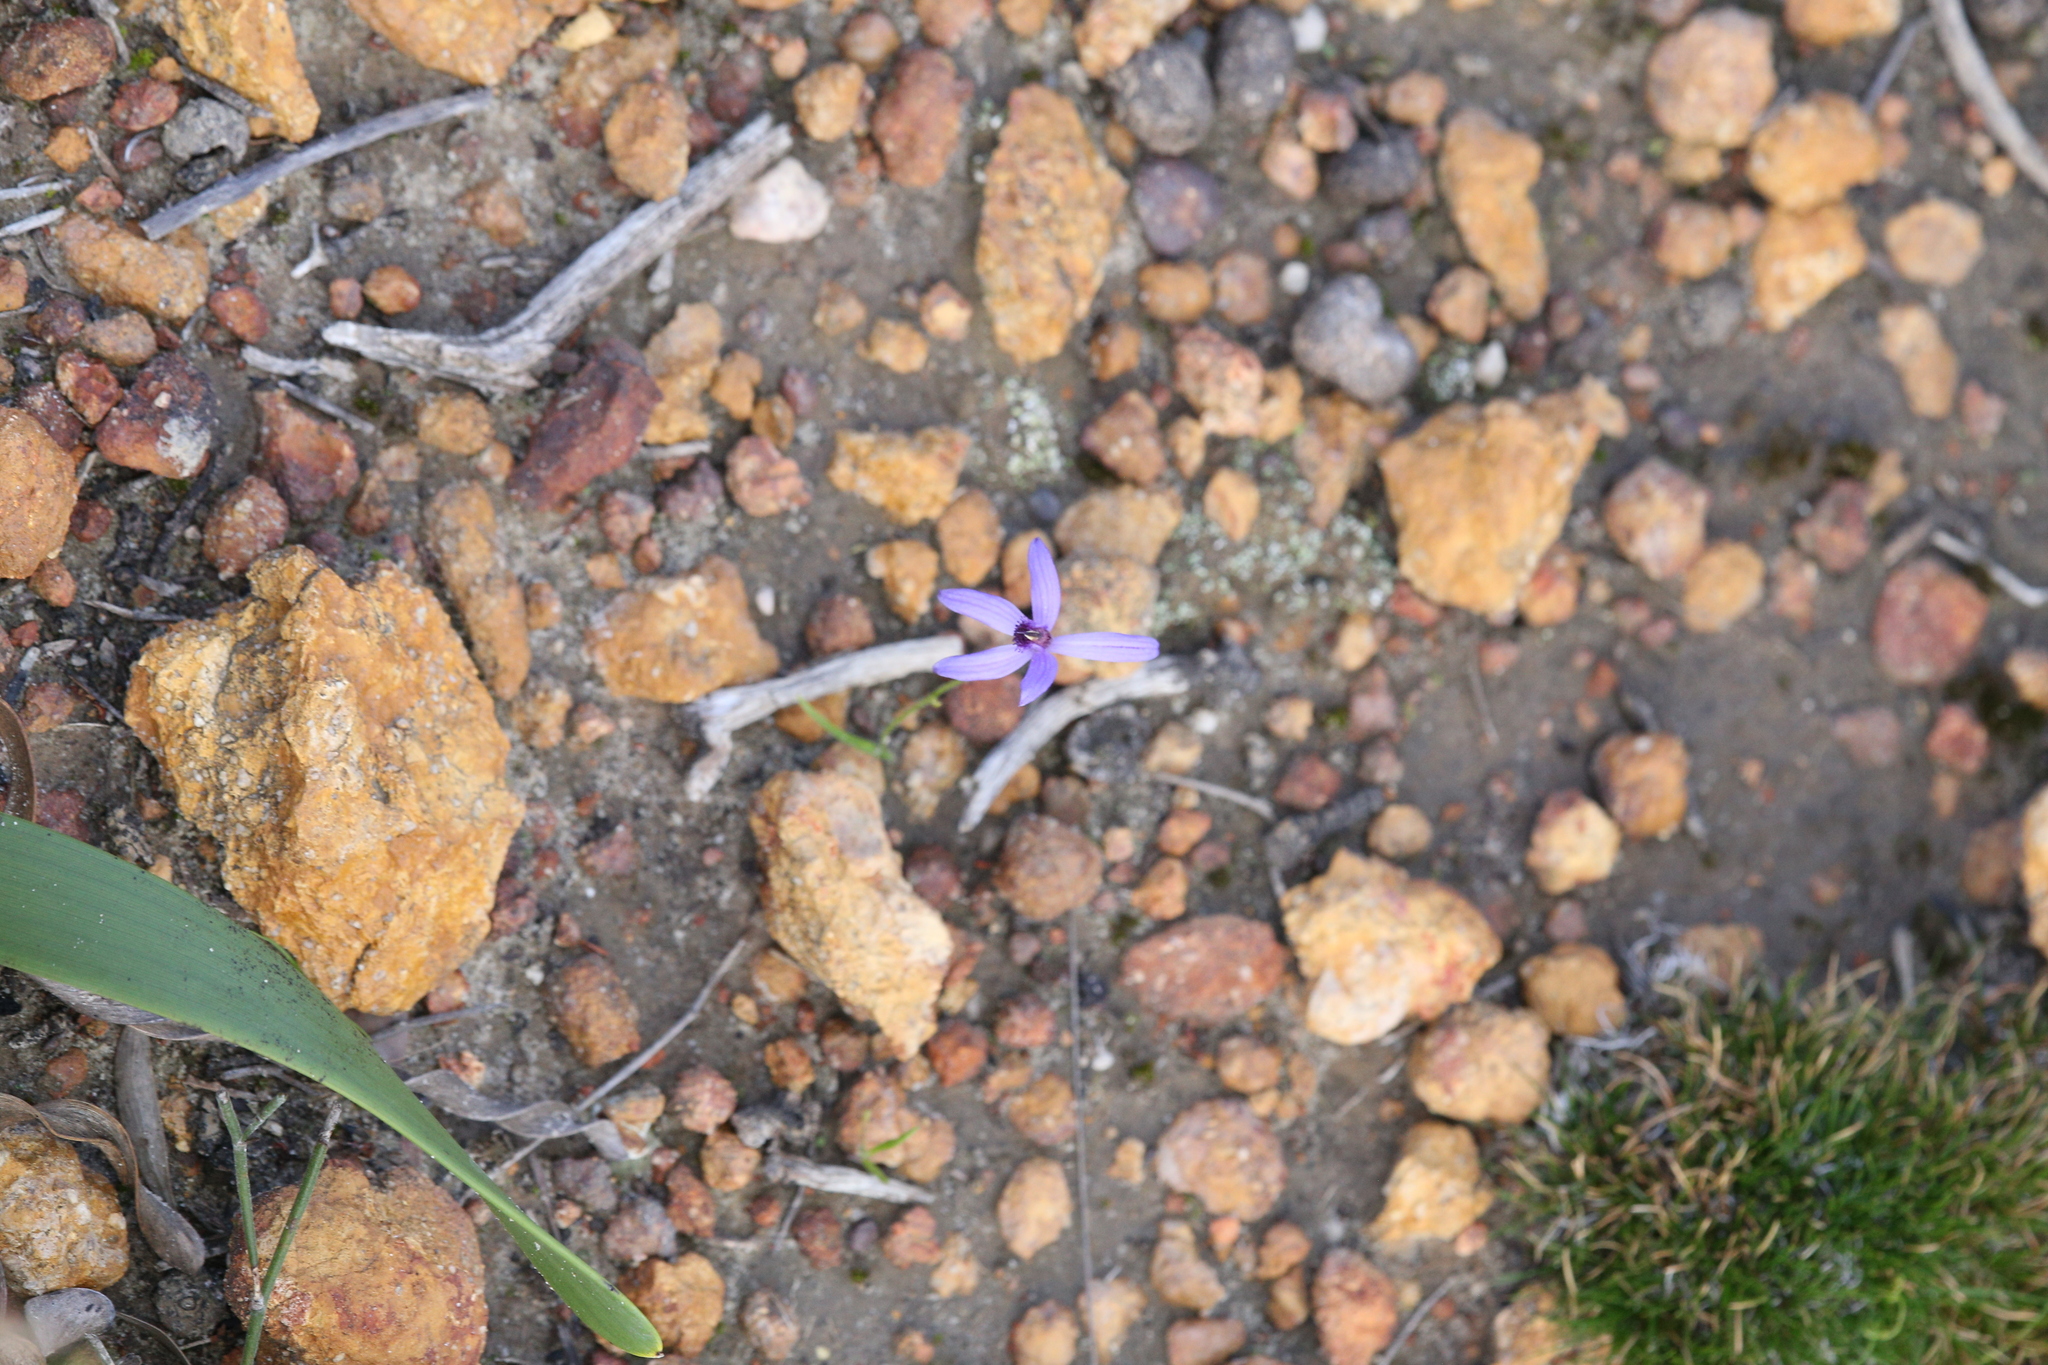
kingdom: Plantae
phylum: Tracheophyta
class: Liliopsida
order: Asparagales
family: Orchidaceae
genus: Pheladenia
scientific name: Pheladenia deformis
